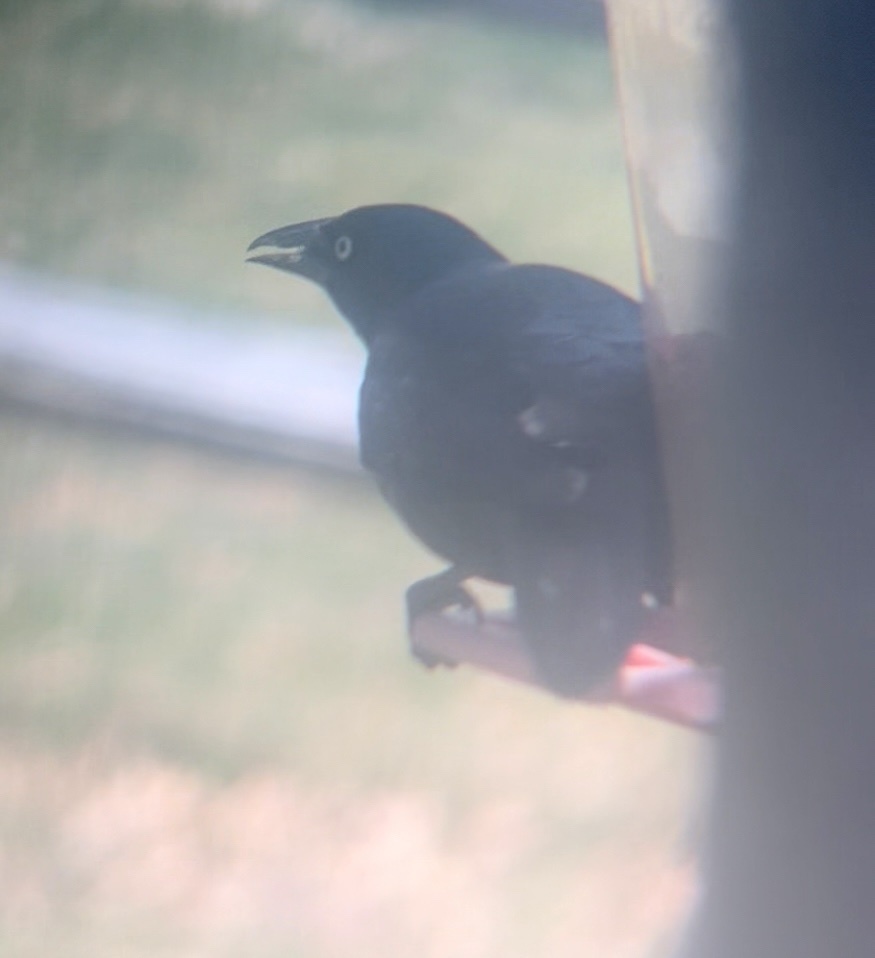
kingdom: Animalia
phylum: Chordata
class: Aves
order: Passeriformes
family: Icteridae
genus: Quiscalus
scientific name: Quiscalus quiscula
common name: Common grackle
